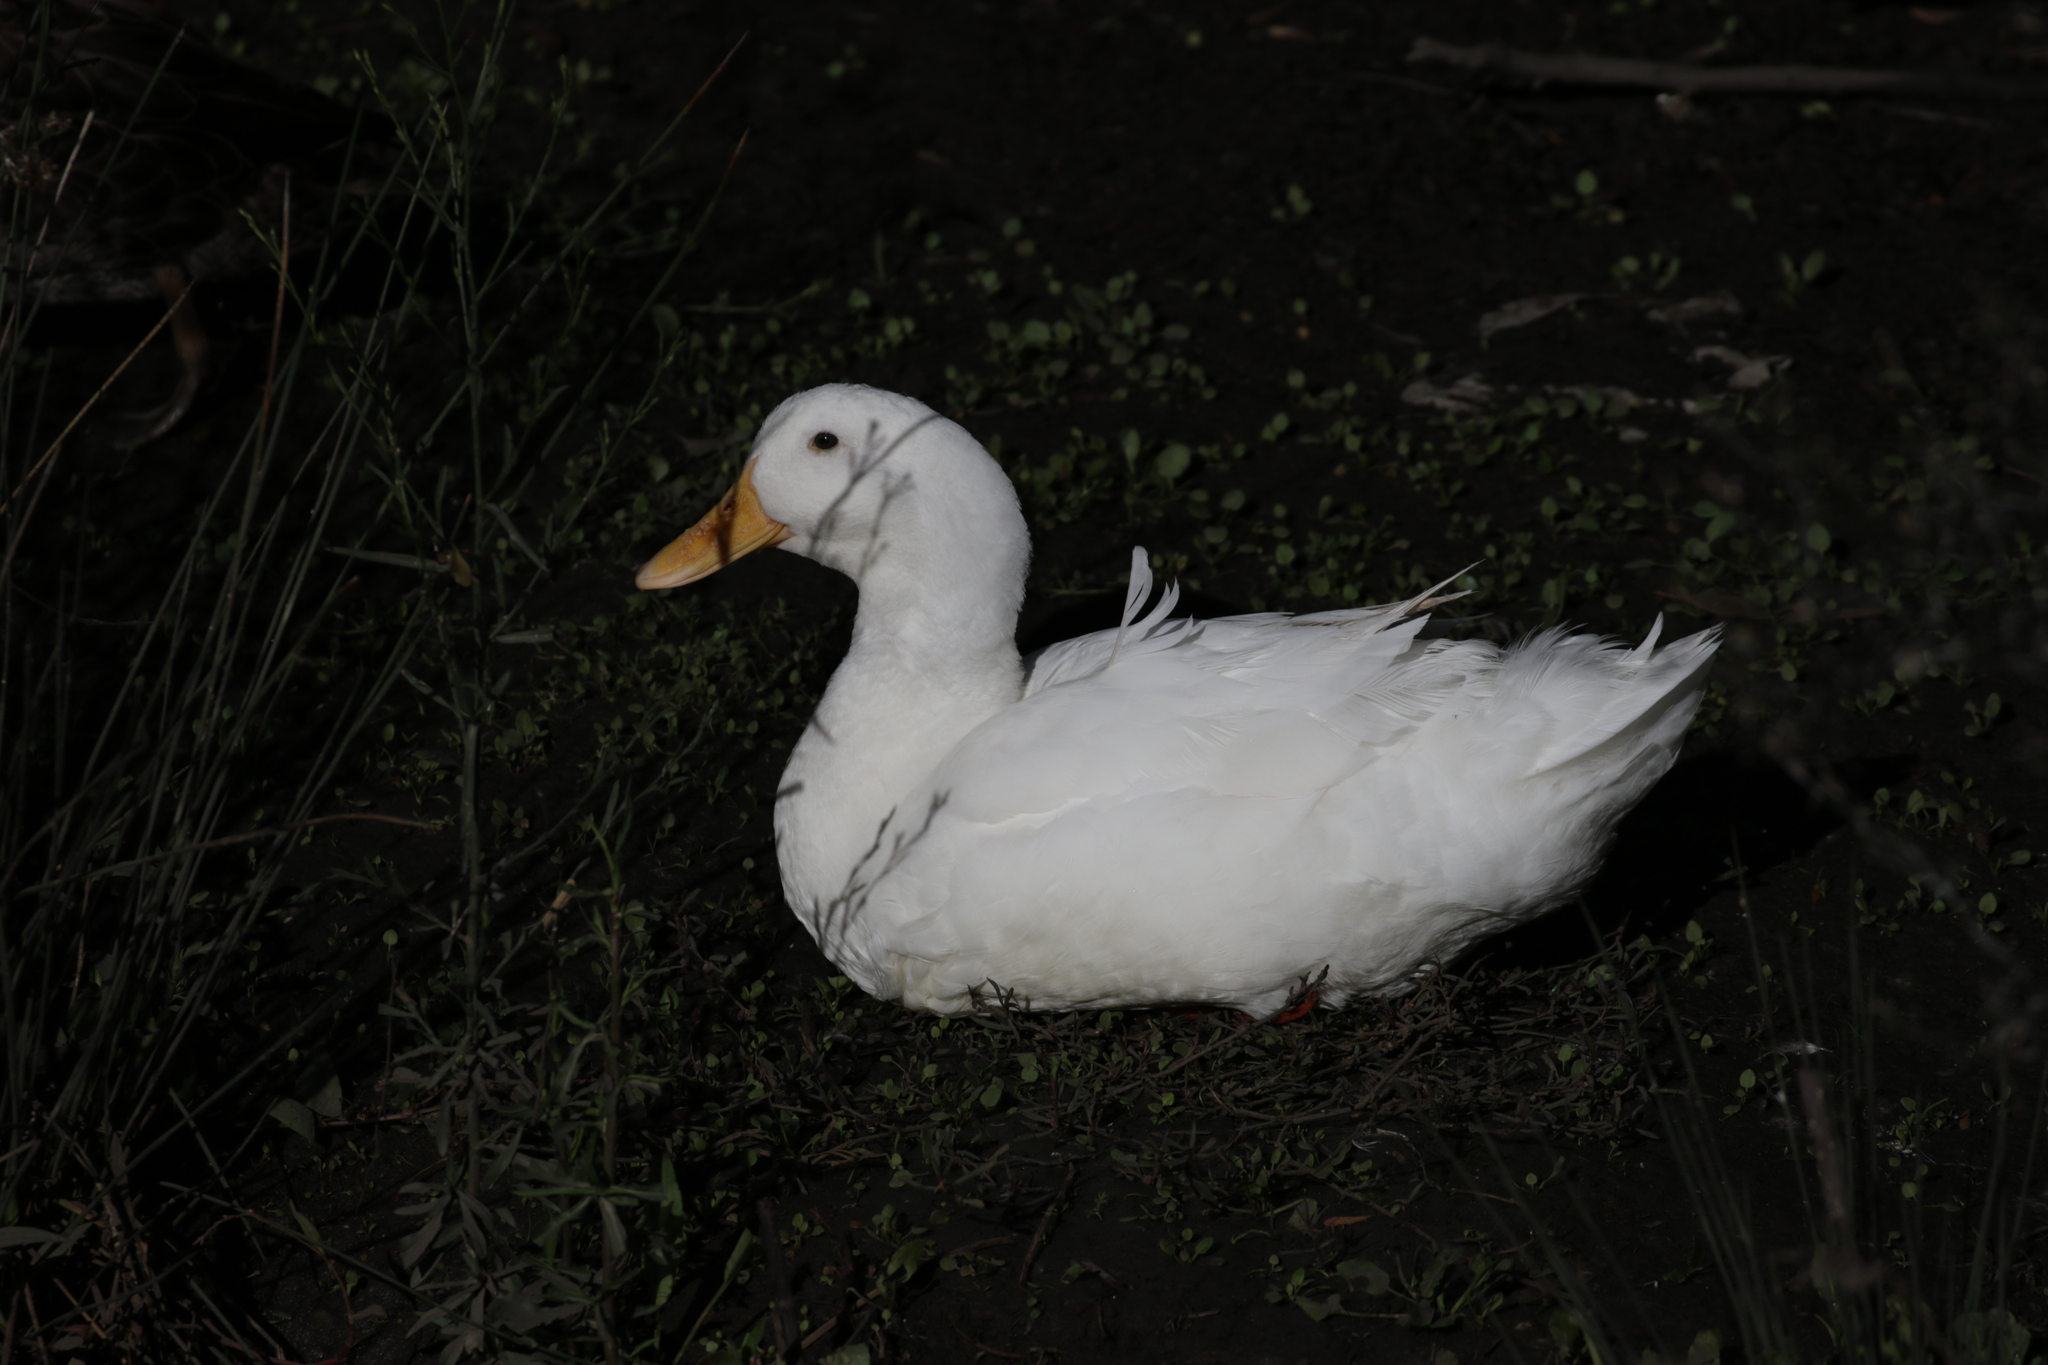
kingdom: Animalia
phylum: Chordata
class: Aves
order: Anseriformes
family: Anatidae
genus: Anas
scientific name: Anas platyrhynchos
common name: Mallard
